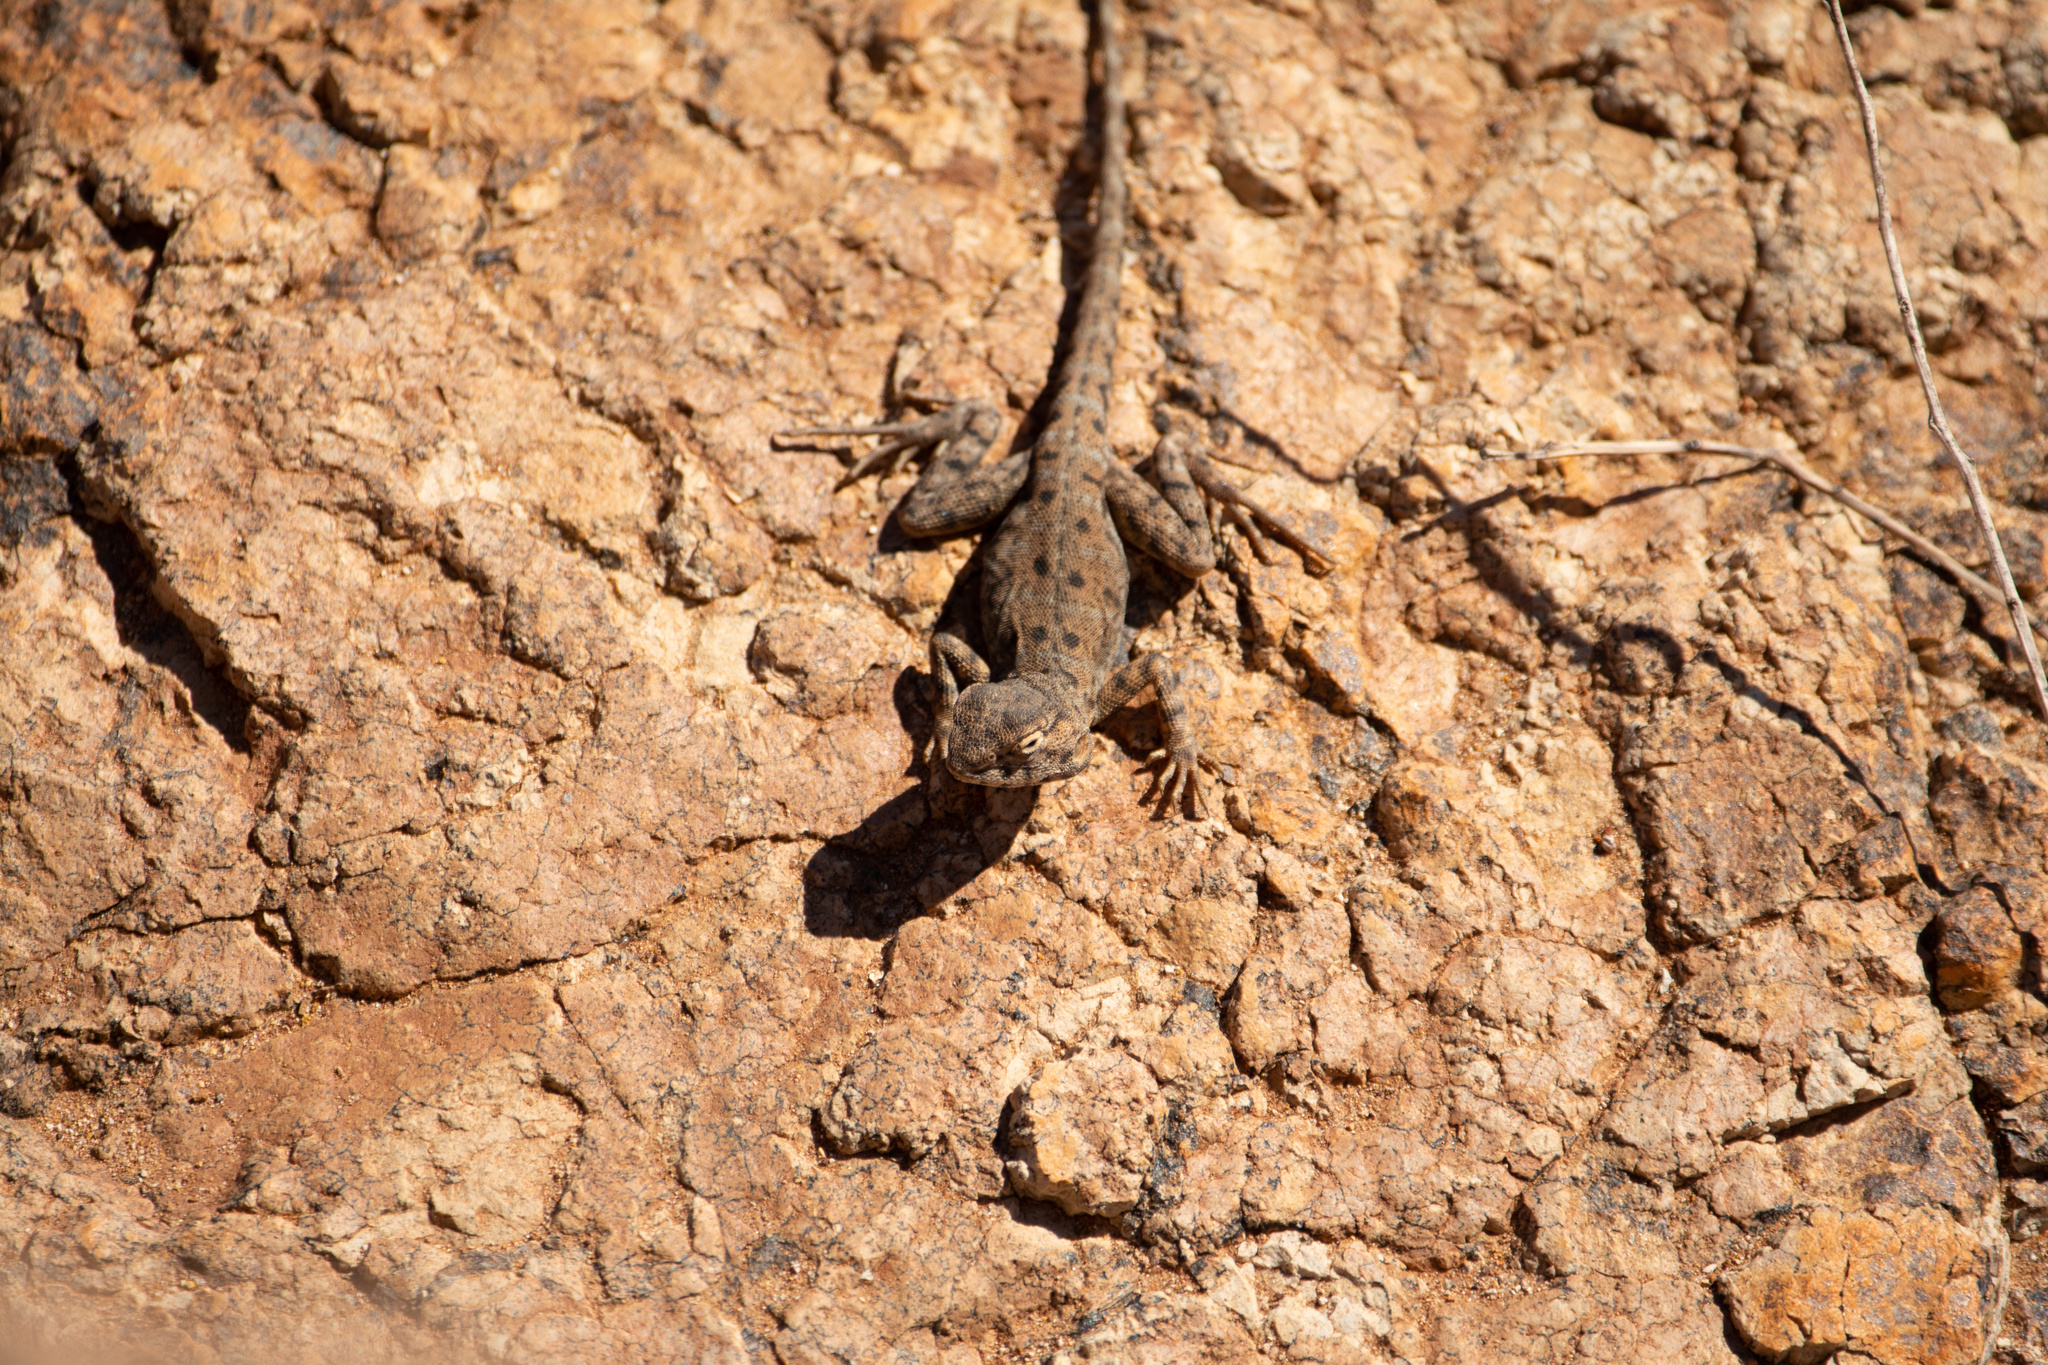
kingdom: Animalia
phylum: Chordata
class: Squamata
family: Agamidae
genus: Ctenophorus
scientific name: Ctenophorus slateri
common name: Slater’s dragon
